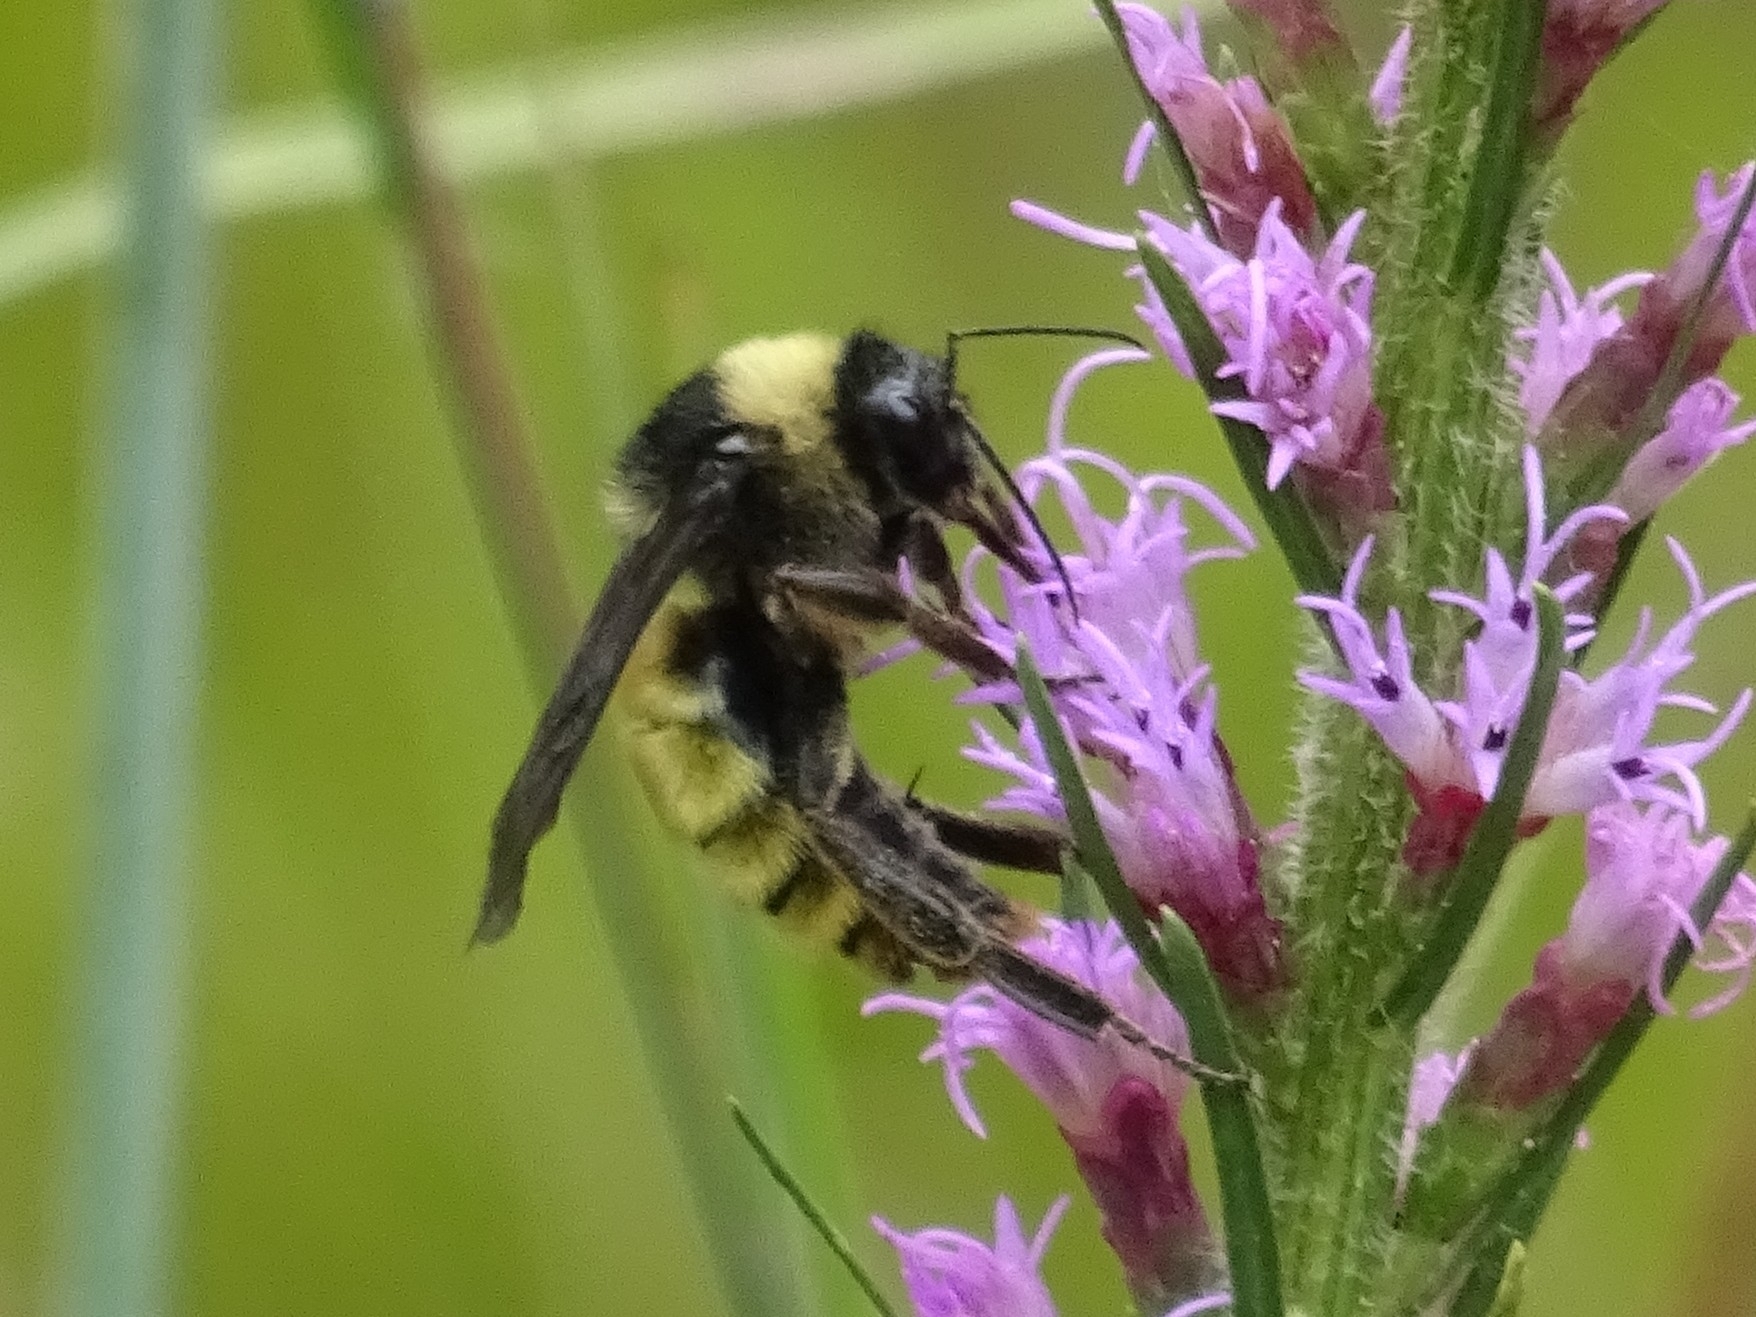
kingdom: Animalia
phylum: Arthropoda
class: Insecta
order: Hymenoptera
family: Apidae
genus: Bombus
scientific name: Bombus pensylvanicus
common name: Bumble bee
